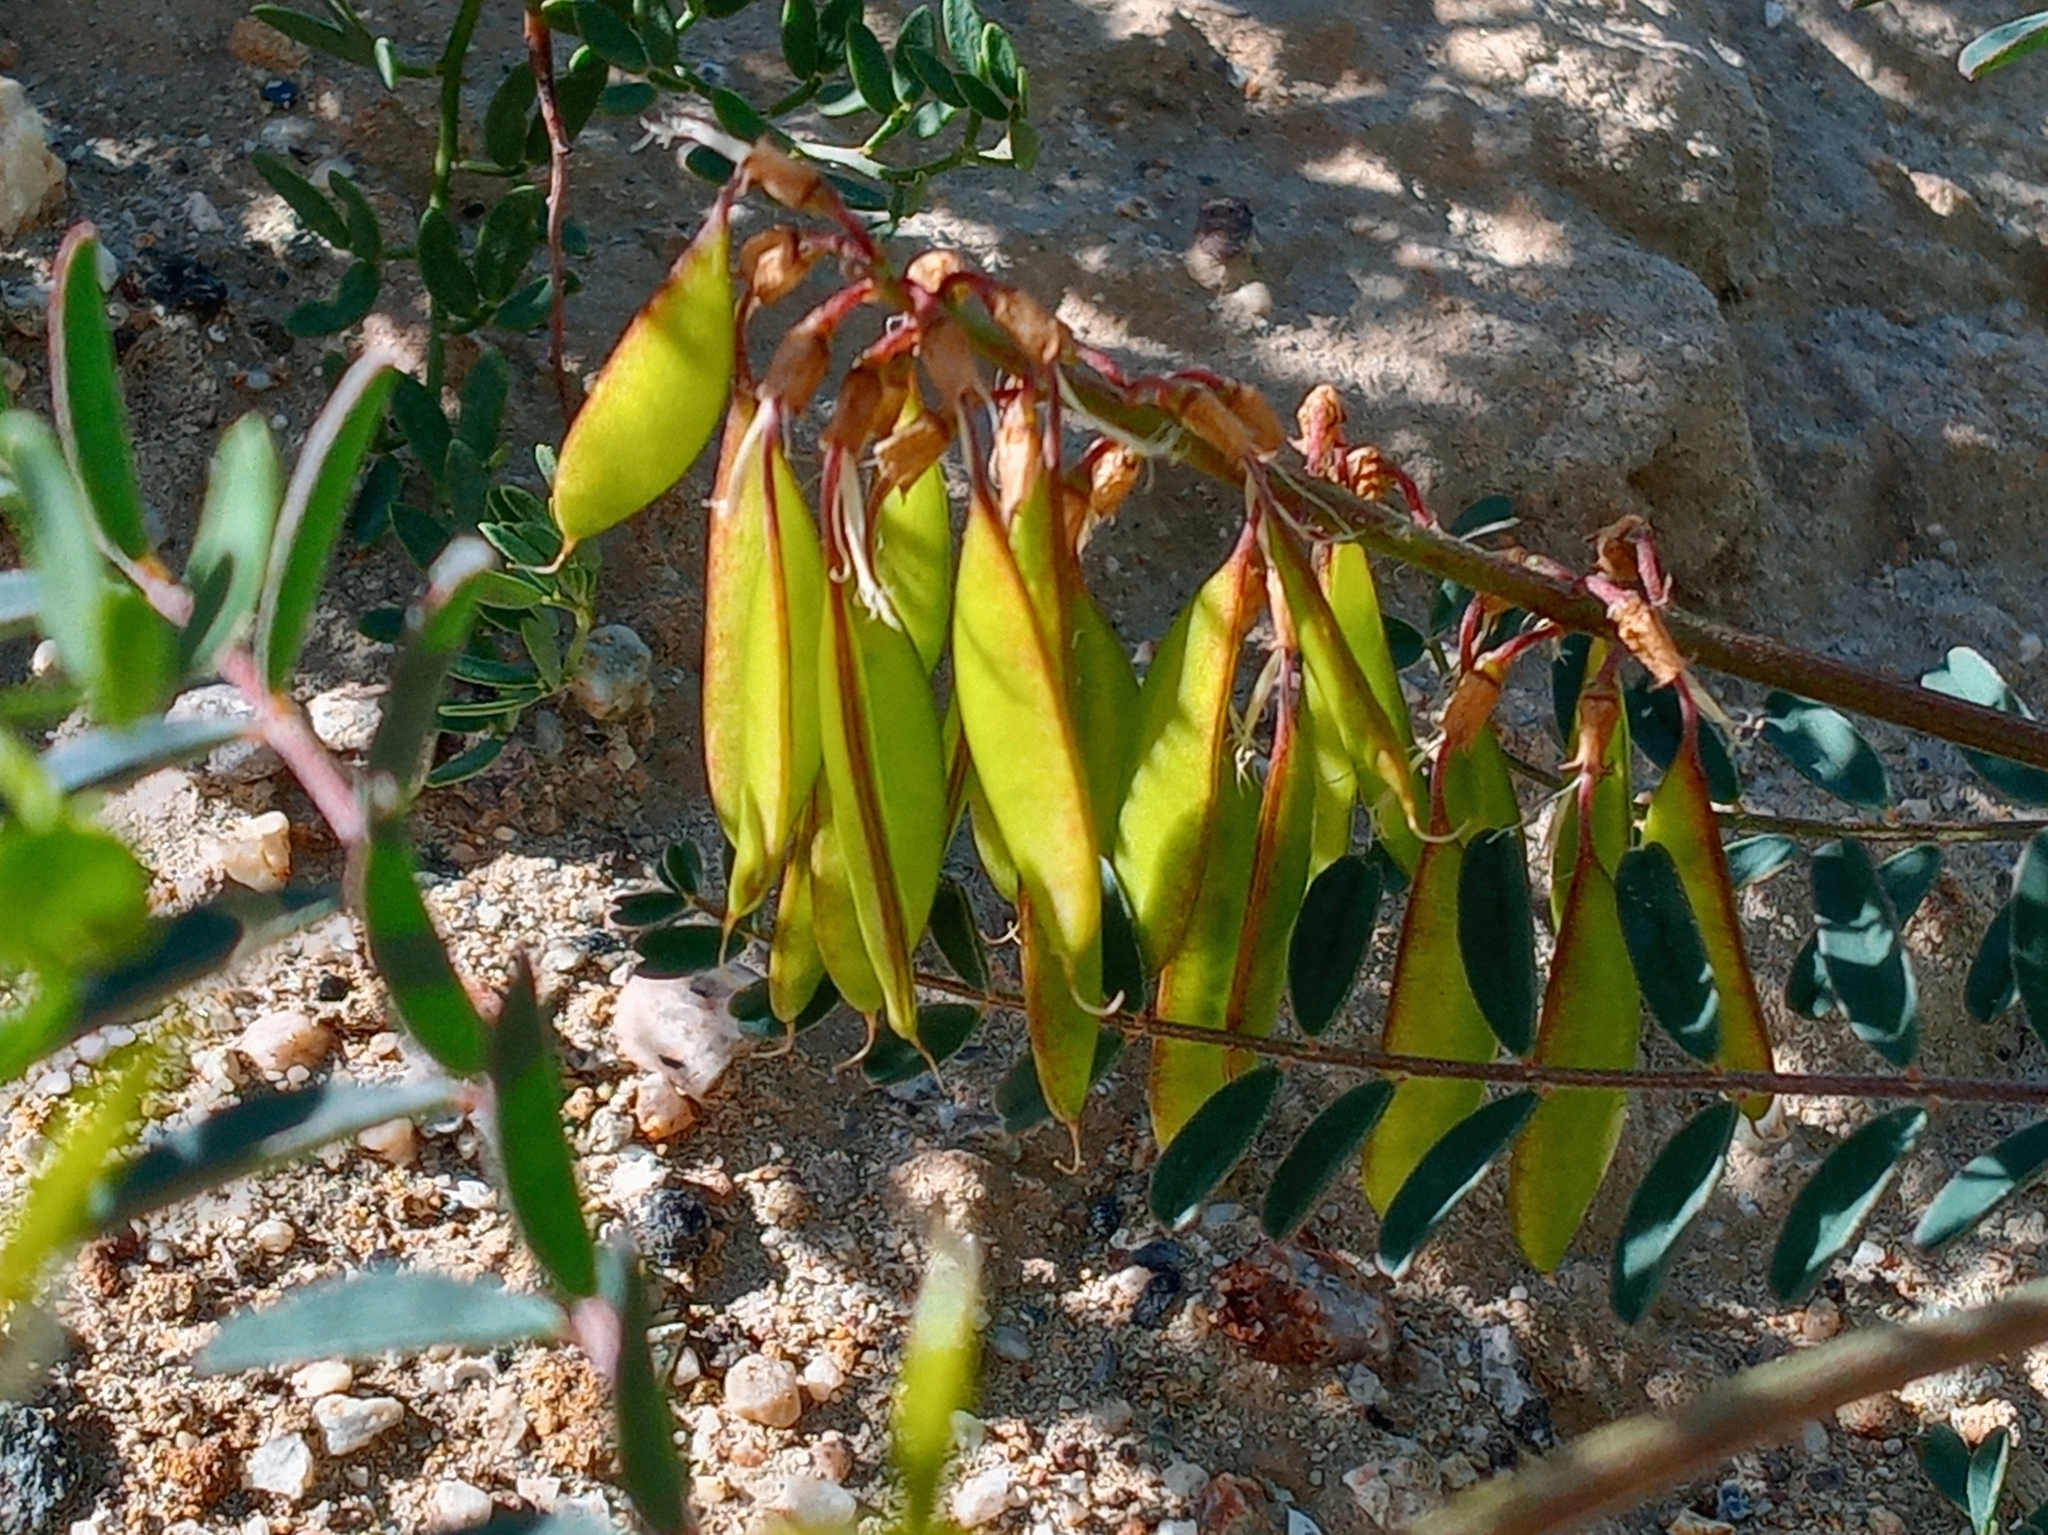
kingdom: Plantae
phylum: Tracheophyta
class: Magnoliopsida
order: Fabales
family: Fabaceae
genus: Astragalus
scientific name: Astragalus trichopodus
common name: Santa barbara milk-vetch
